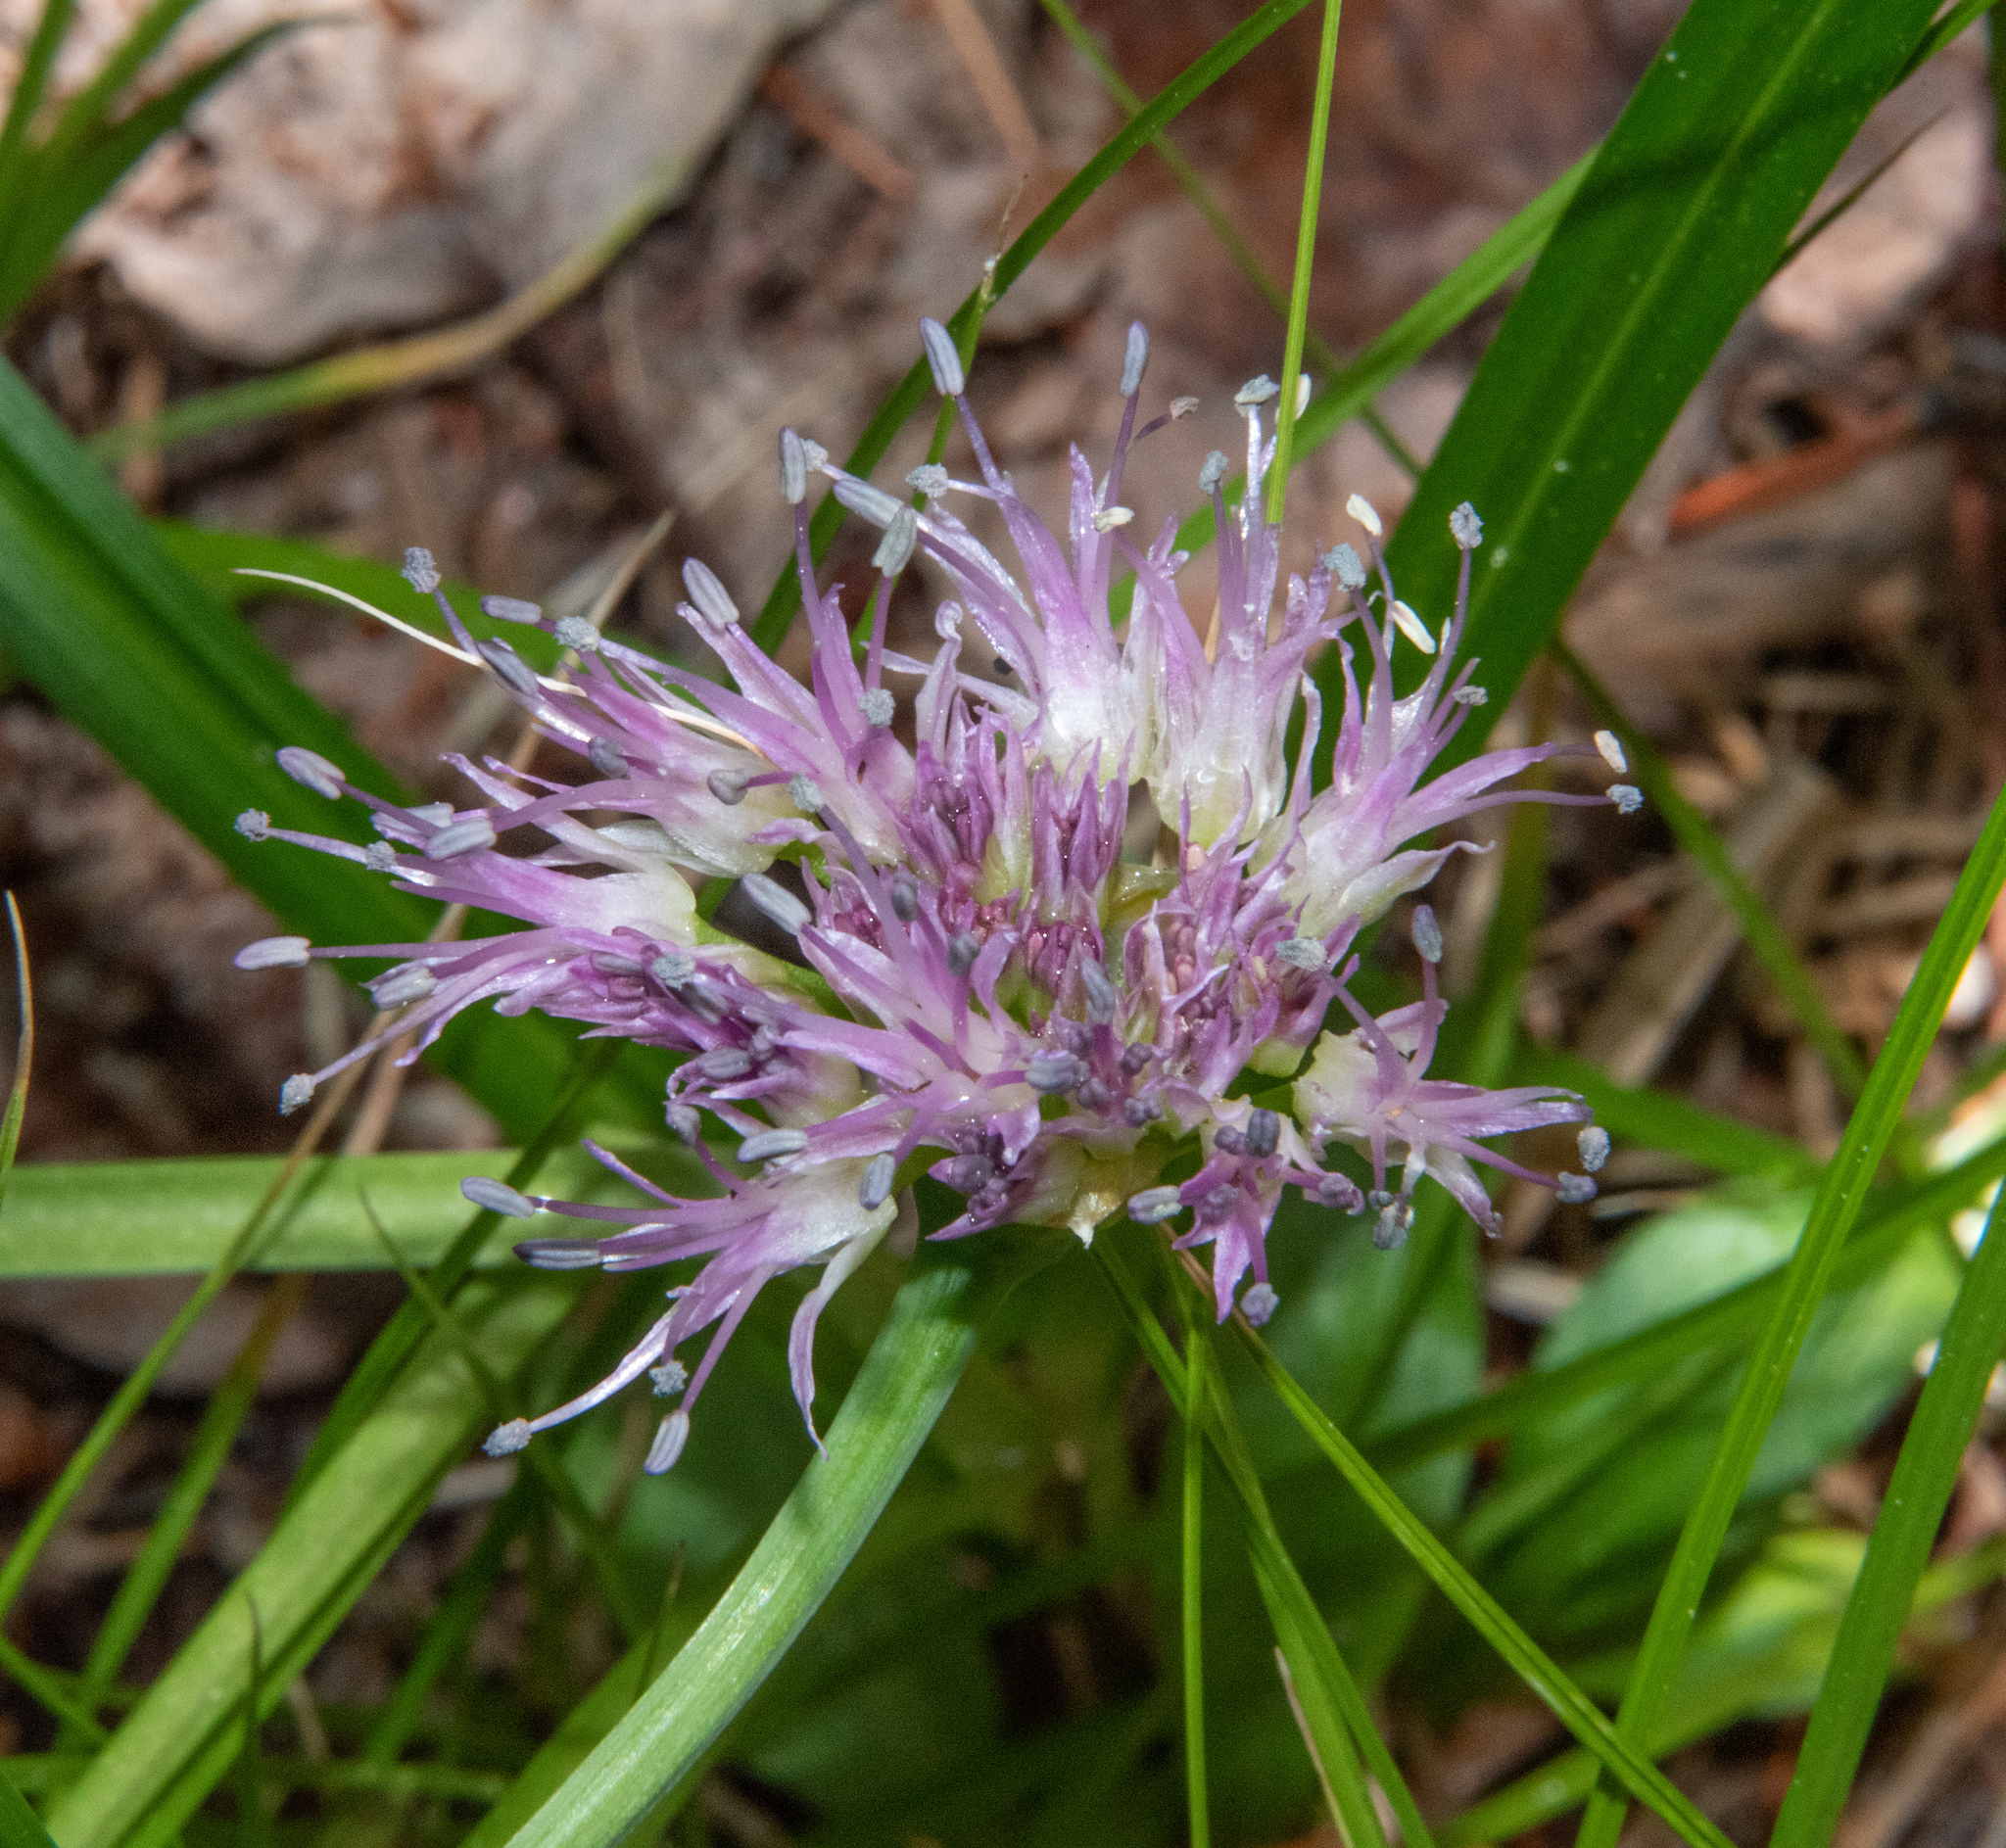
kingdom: Plantae
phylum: Tracheophyta
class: Liliopsida
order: Asparagales
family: Amaryllidaceae
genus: Allium
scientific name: Allium validum
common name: Pacific mountain onion
